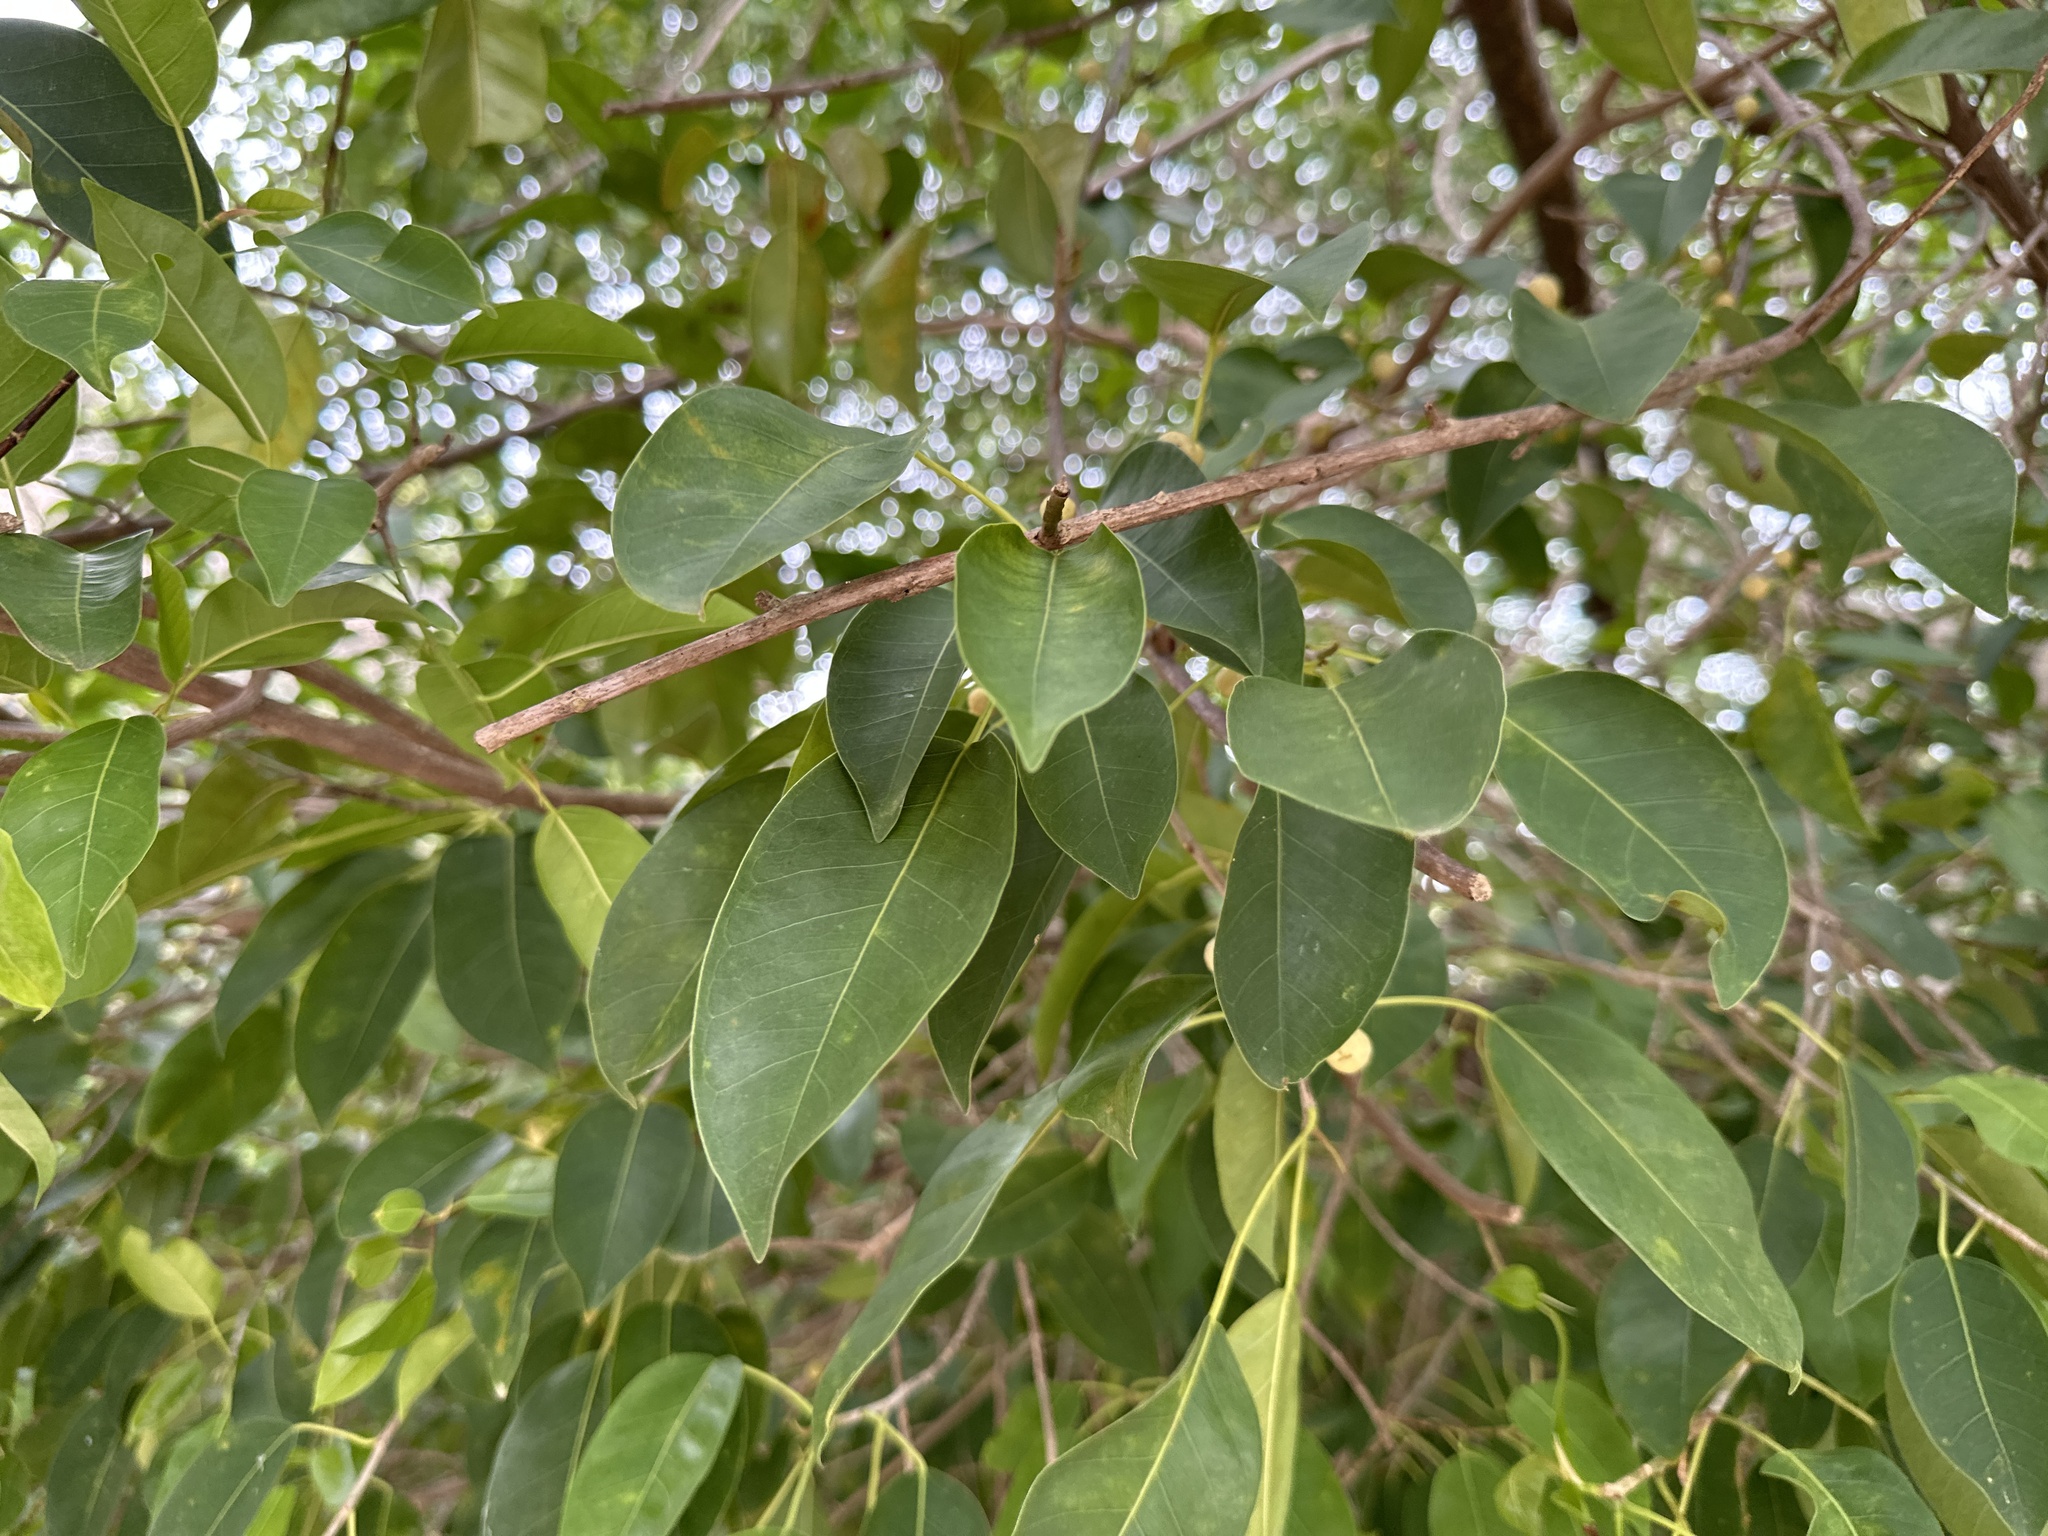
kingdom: Plantae
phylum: Tracheophyta
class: Magnoliopsida
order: Rosales
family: Moraceae
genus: Ficus
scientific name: Ficus citrifolia
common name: Strangler fig
